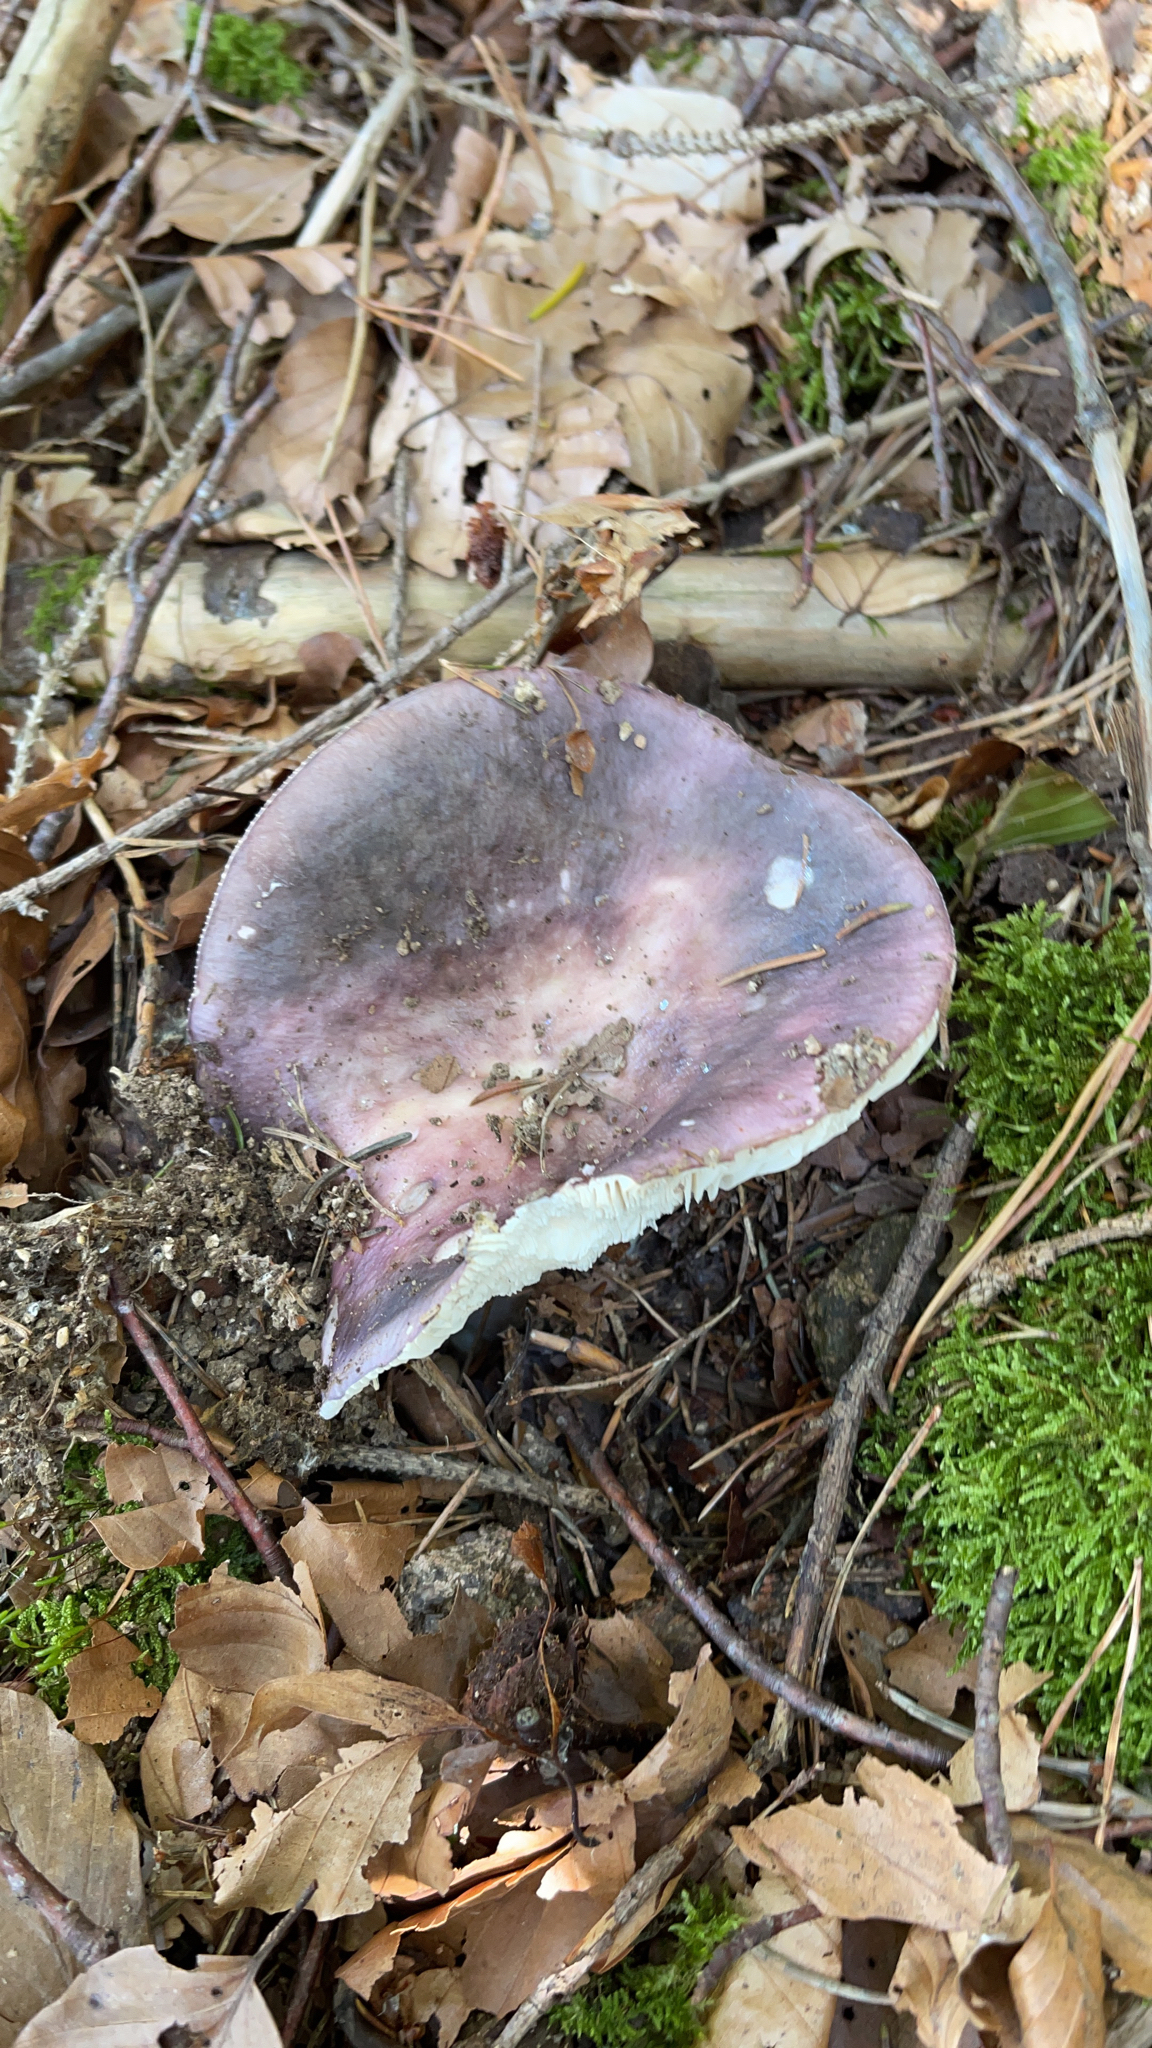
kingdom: Fungi
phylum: Basidiomycota
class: Agaricomycetes
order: Russulales
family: Russulaceae
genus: Russula
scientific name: Russula cyanoxantha
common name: Charcoal burner
